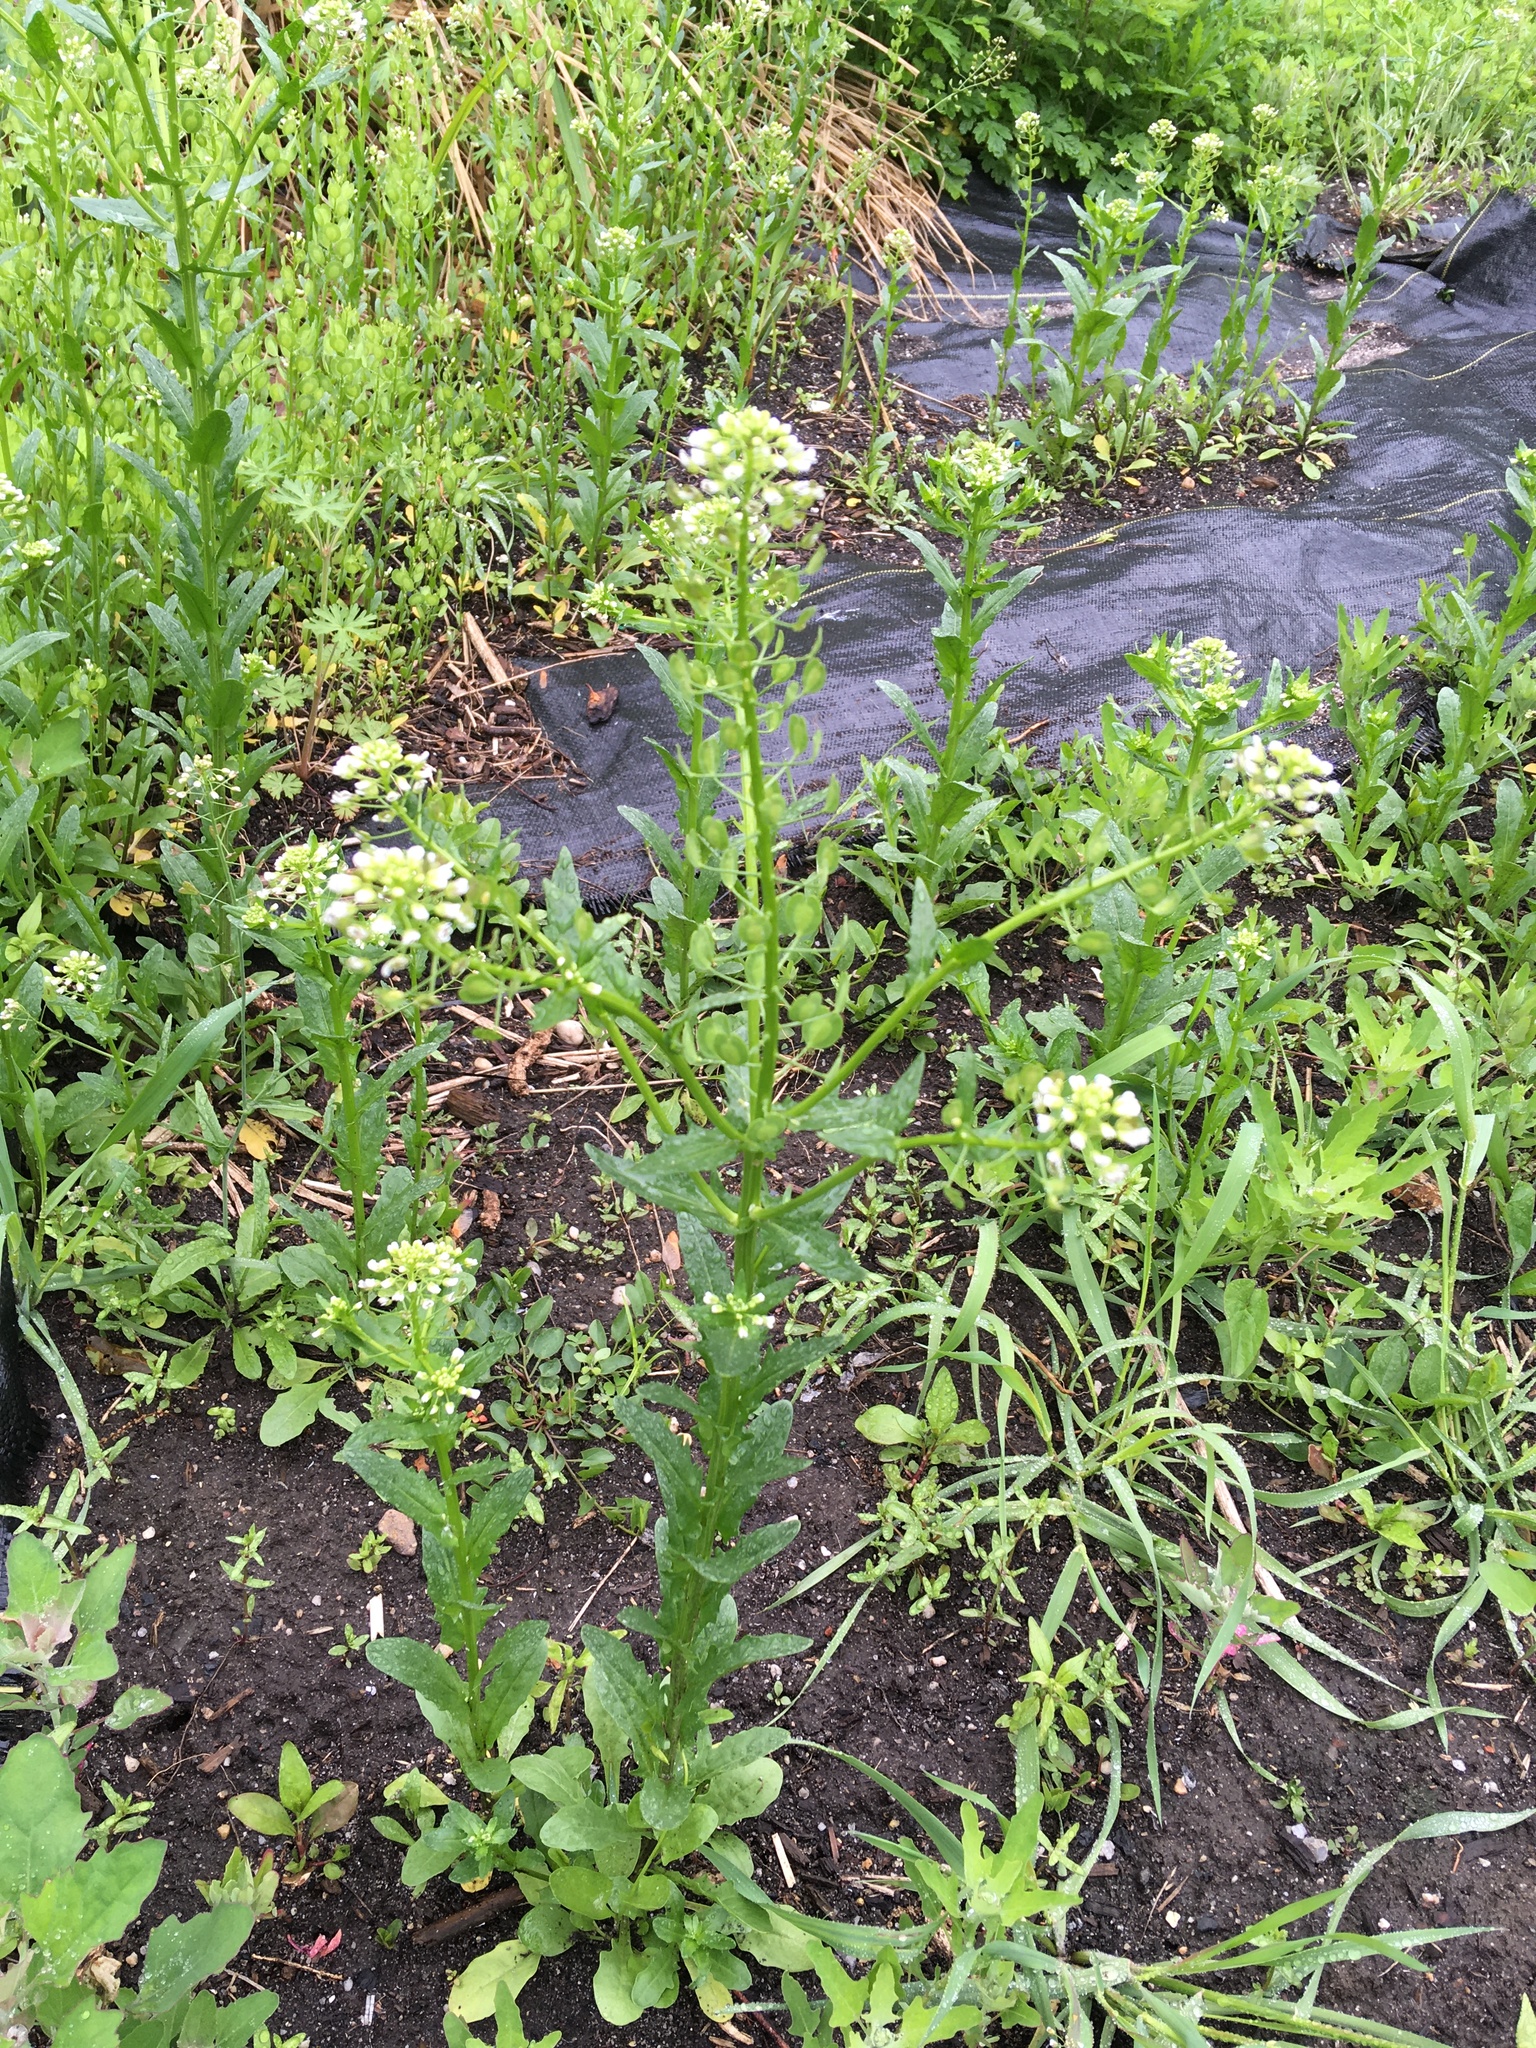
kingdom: Plantae
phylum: Tracheophyta
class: Magnoliopsida
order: Brassicales
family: Brassicaceae
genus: Thlaspi
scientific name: Thlaspi arvense
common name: Field pennycress
